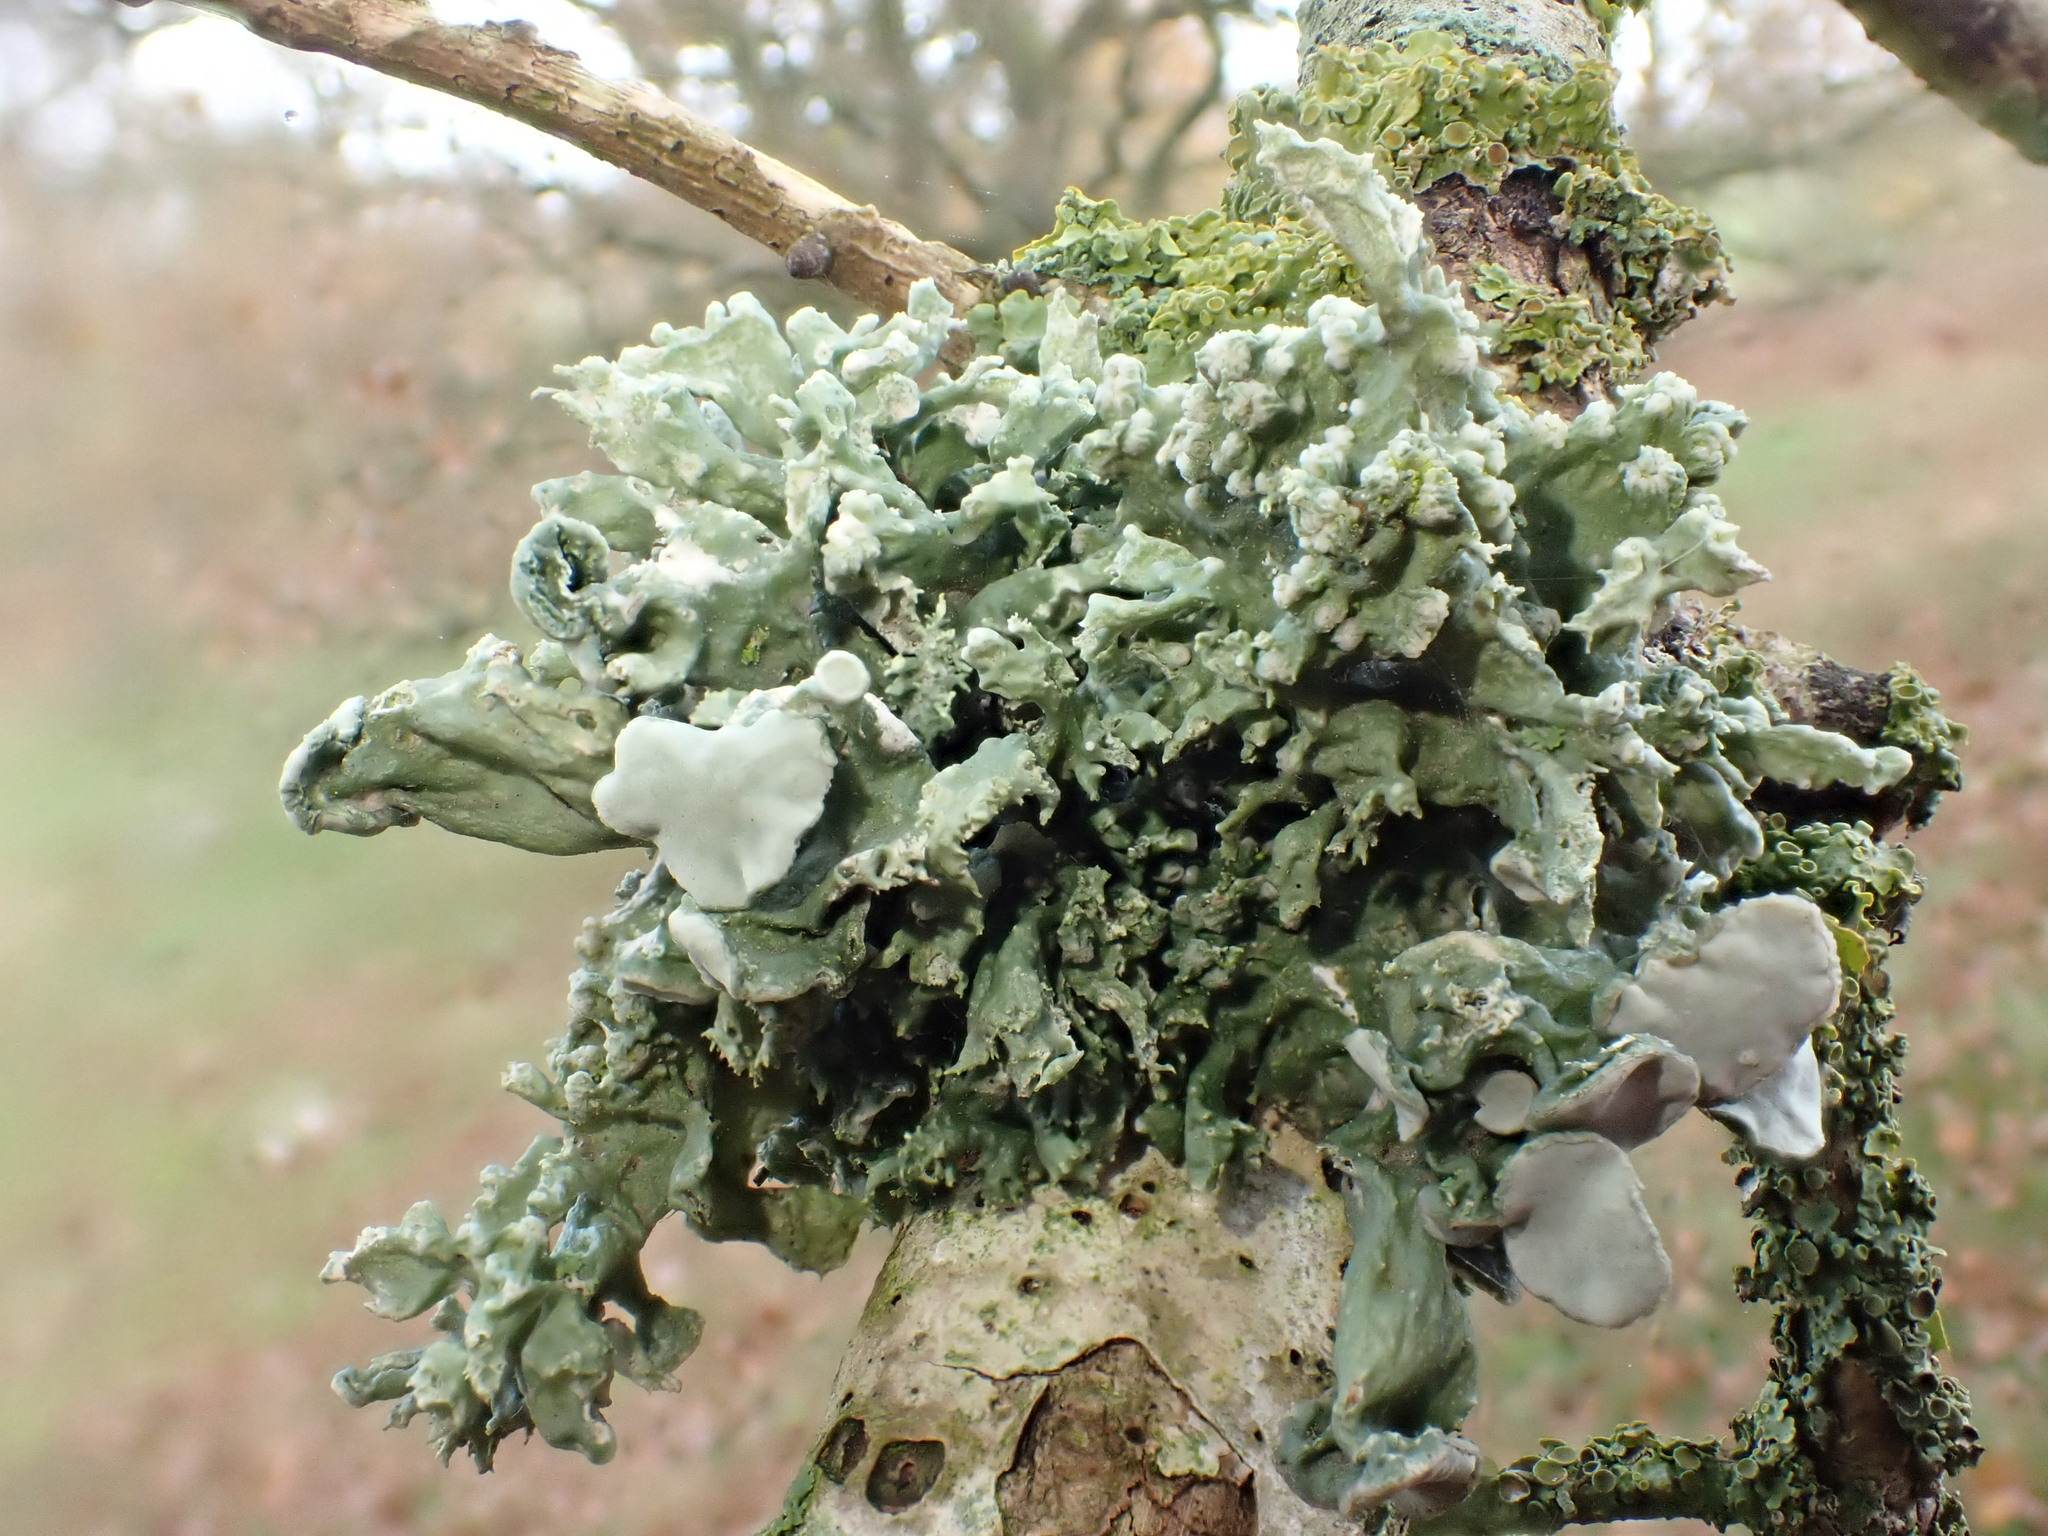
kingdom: Fungi
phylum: Ascomycota
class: Lecanoromycetes
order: Lecanorales
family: Ramalinaceae
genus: Ramalina
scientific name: Ramalina fastigiata
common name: Dotted ribbon lichen
